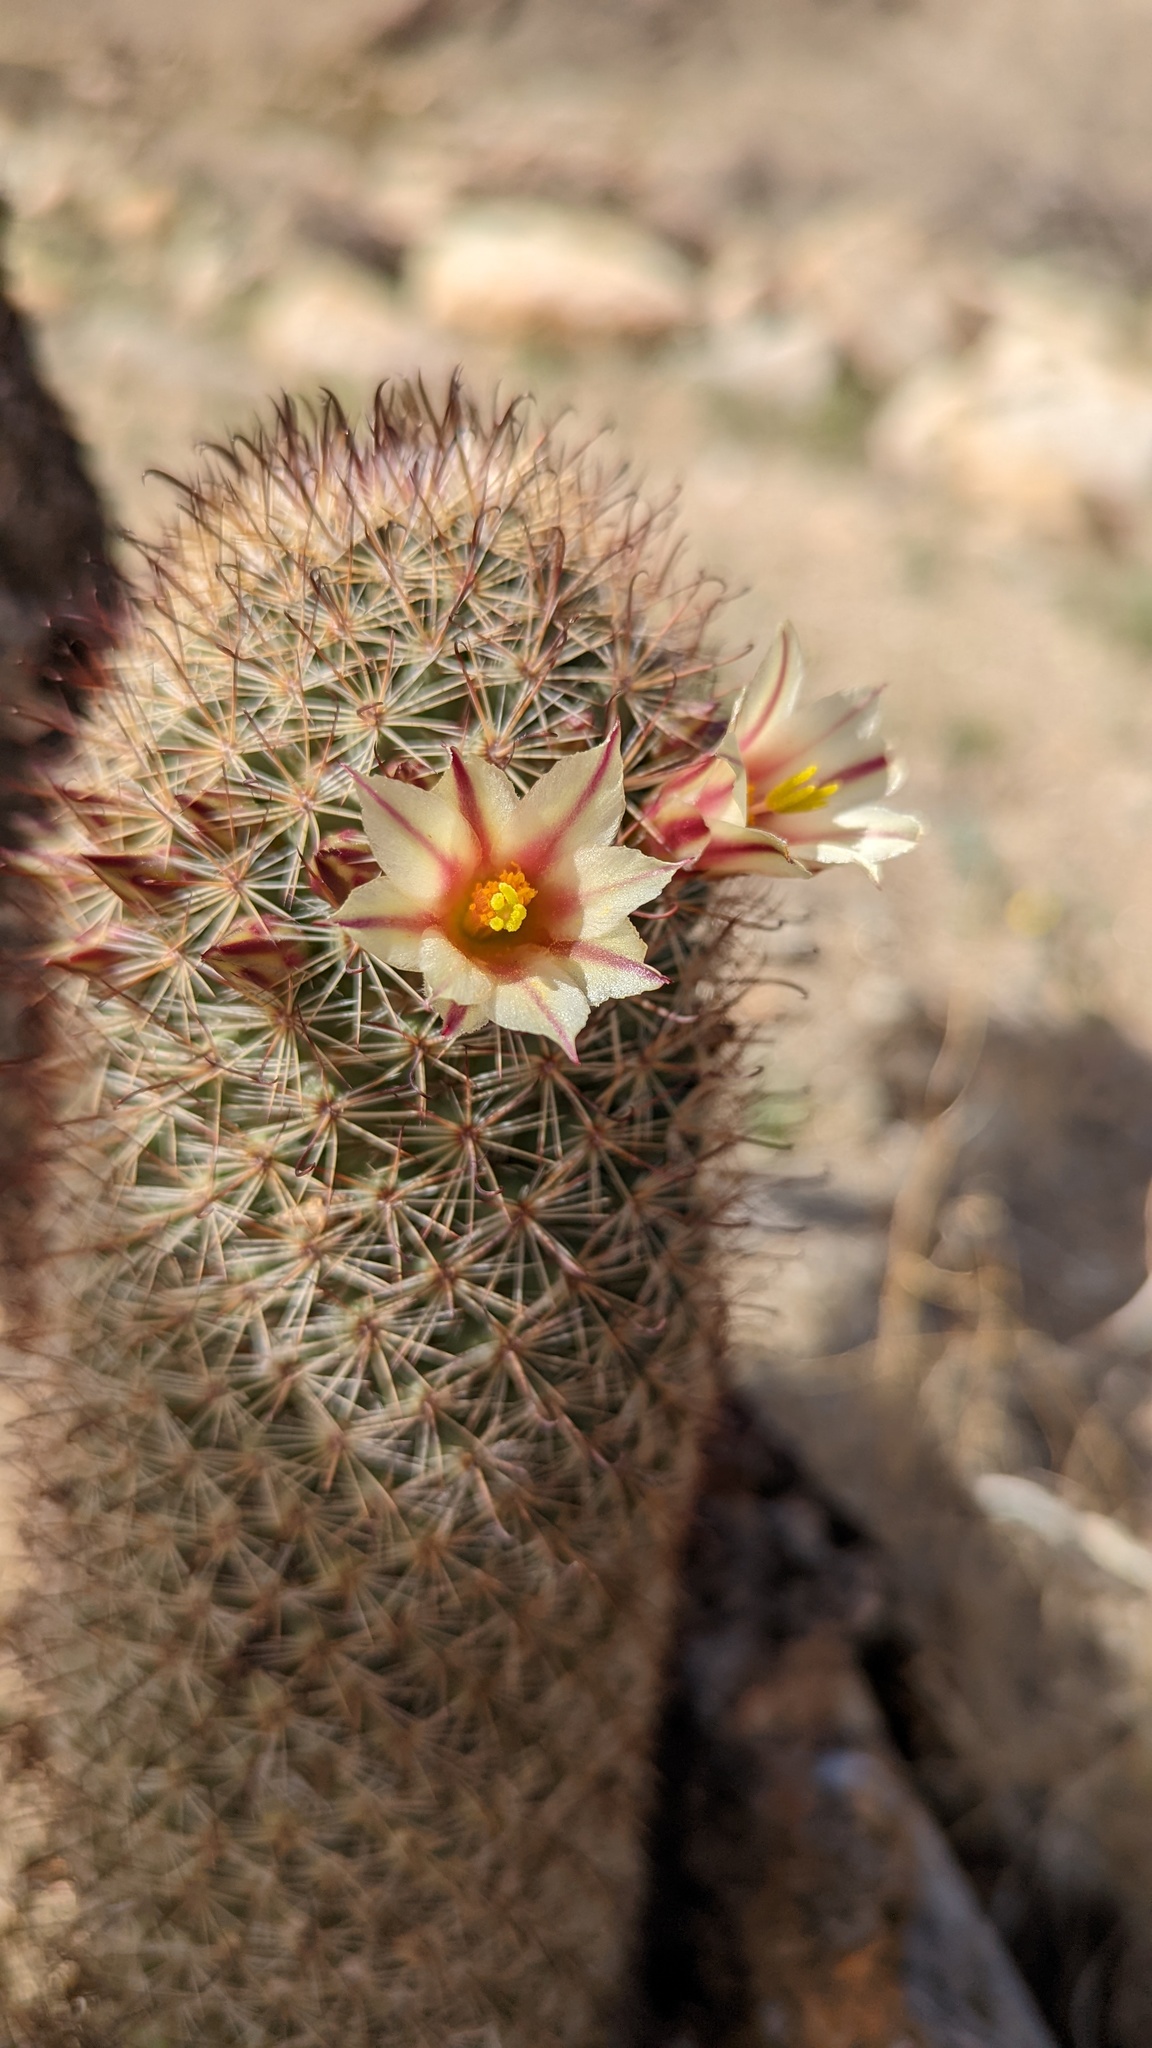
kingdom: Plantae
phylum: Tracheophyta
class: Magnoliopsida
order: Caryophyllales
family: Cactaceae
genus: Cochemiea
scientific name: Cochemiea dioica
